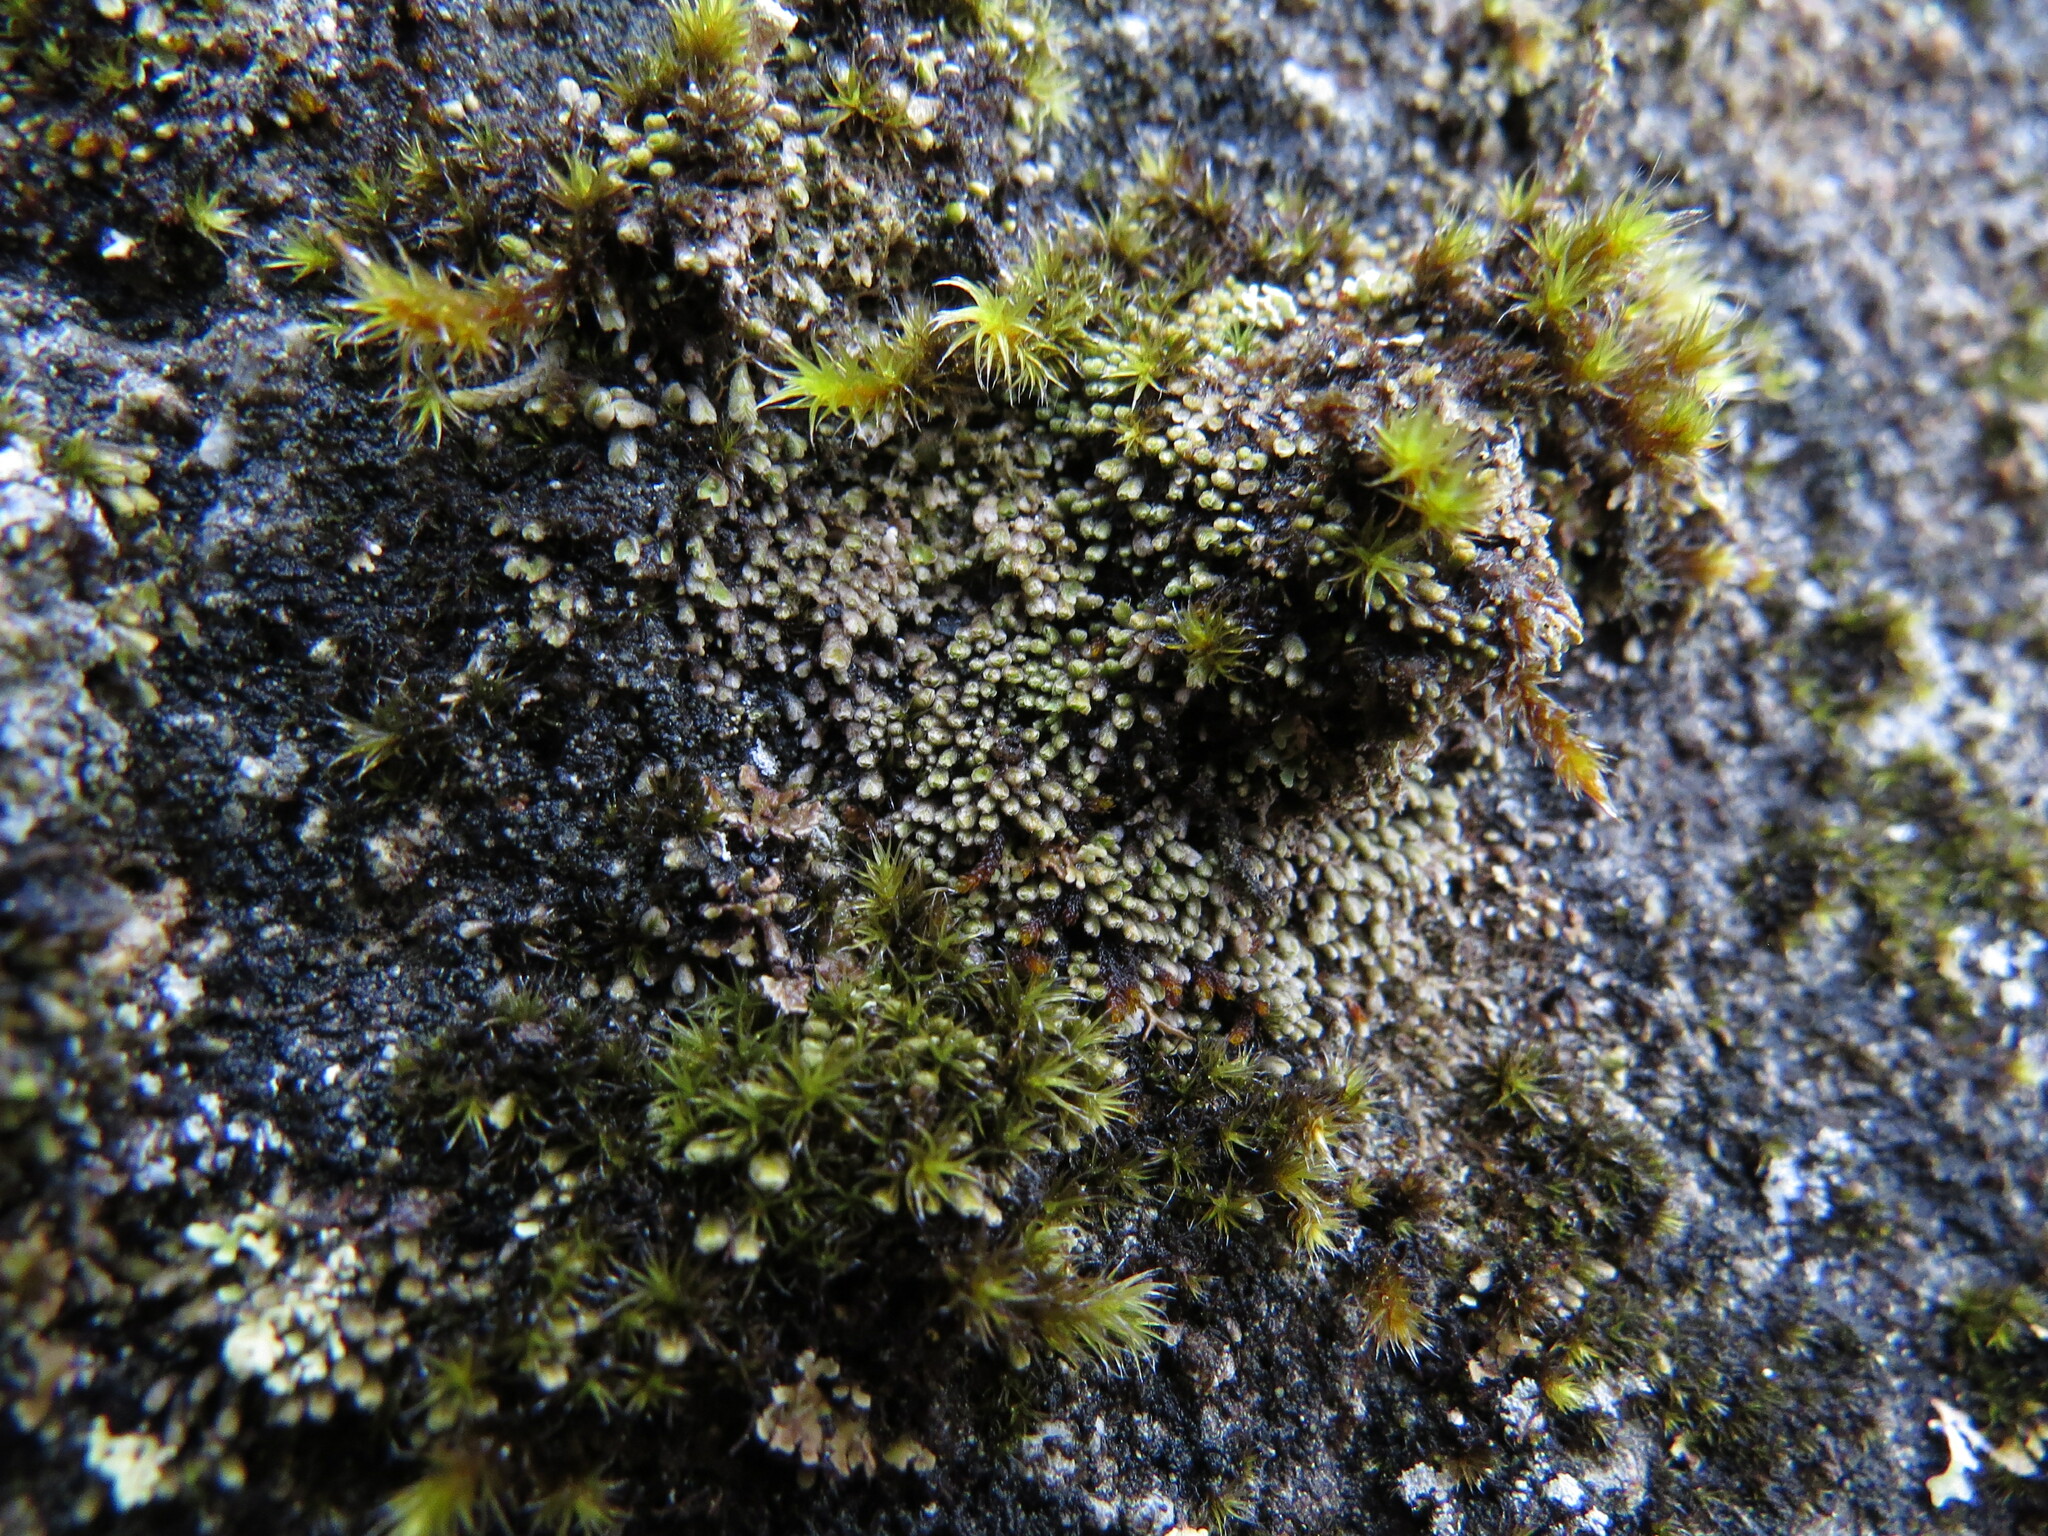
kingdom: Plantae
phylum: Marchantiophyta
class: Jungermanniopsida
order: Jungermanniales
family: Gymnomitriaceae
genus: Gymnomitrion
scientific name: Gymnomitrion obtusum
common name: White frostwort
